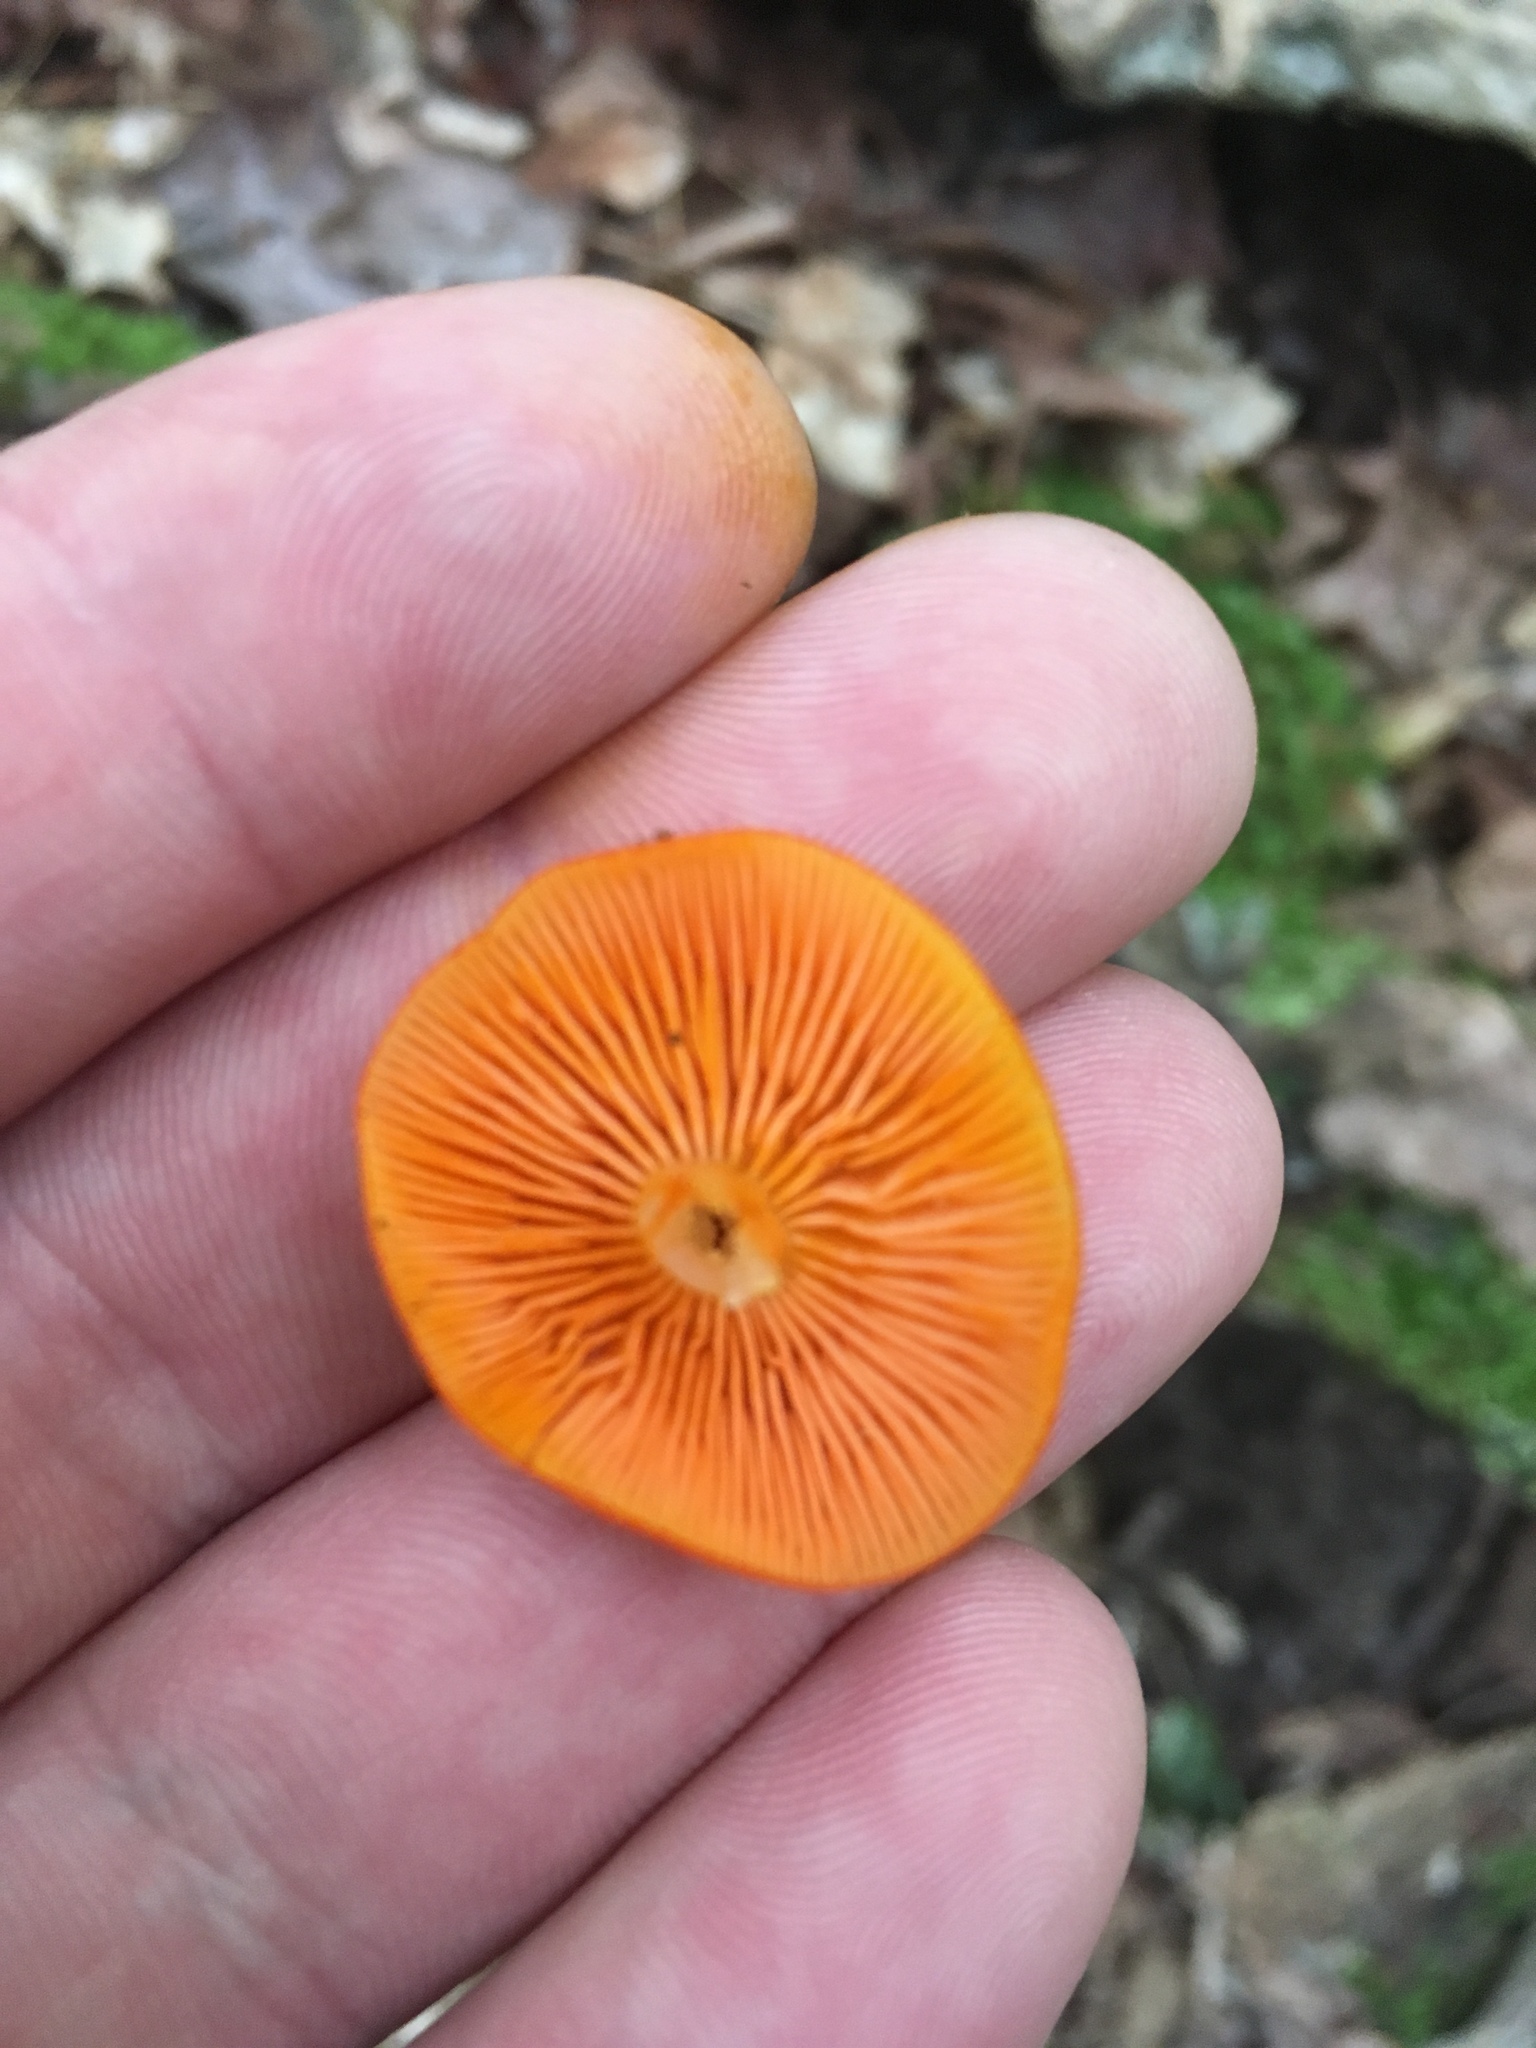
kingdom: Fungi
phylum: Basidiomycota
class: Agaricomycetes
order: Agaricales
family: Mycenaceae
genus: Mycena
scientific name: Mycena leaiana
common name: Orange mycena
